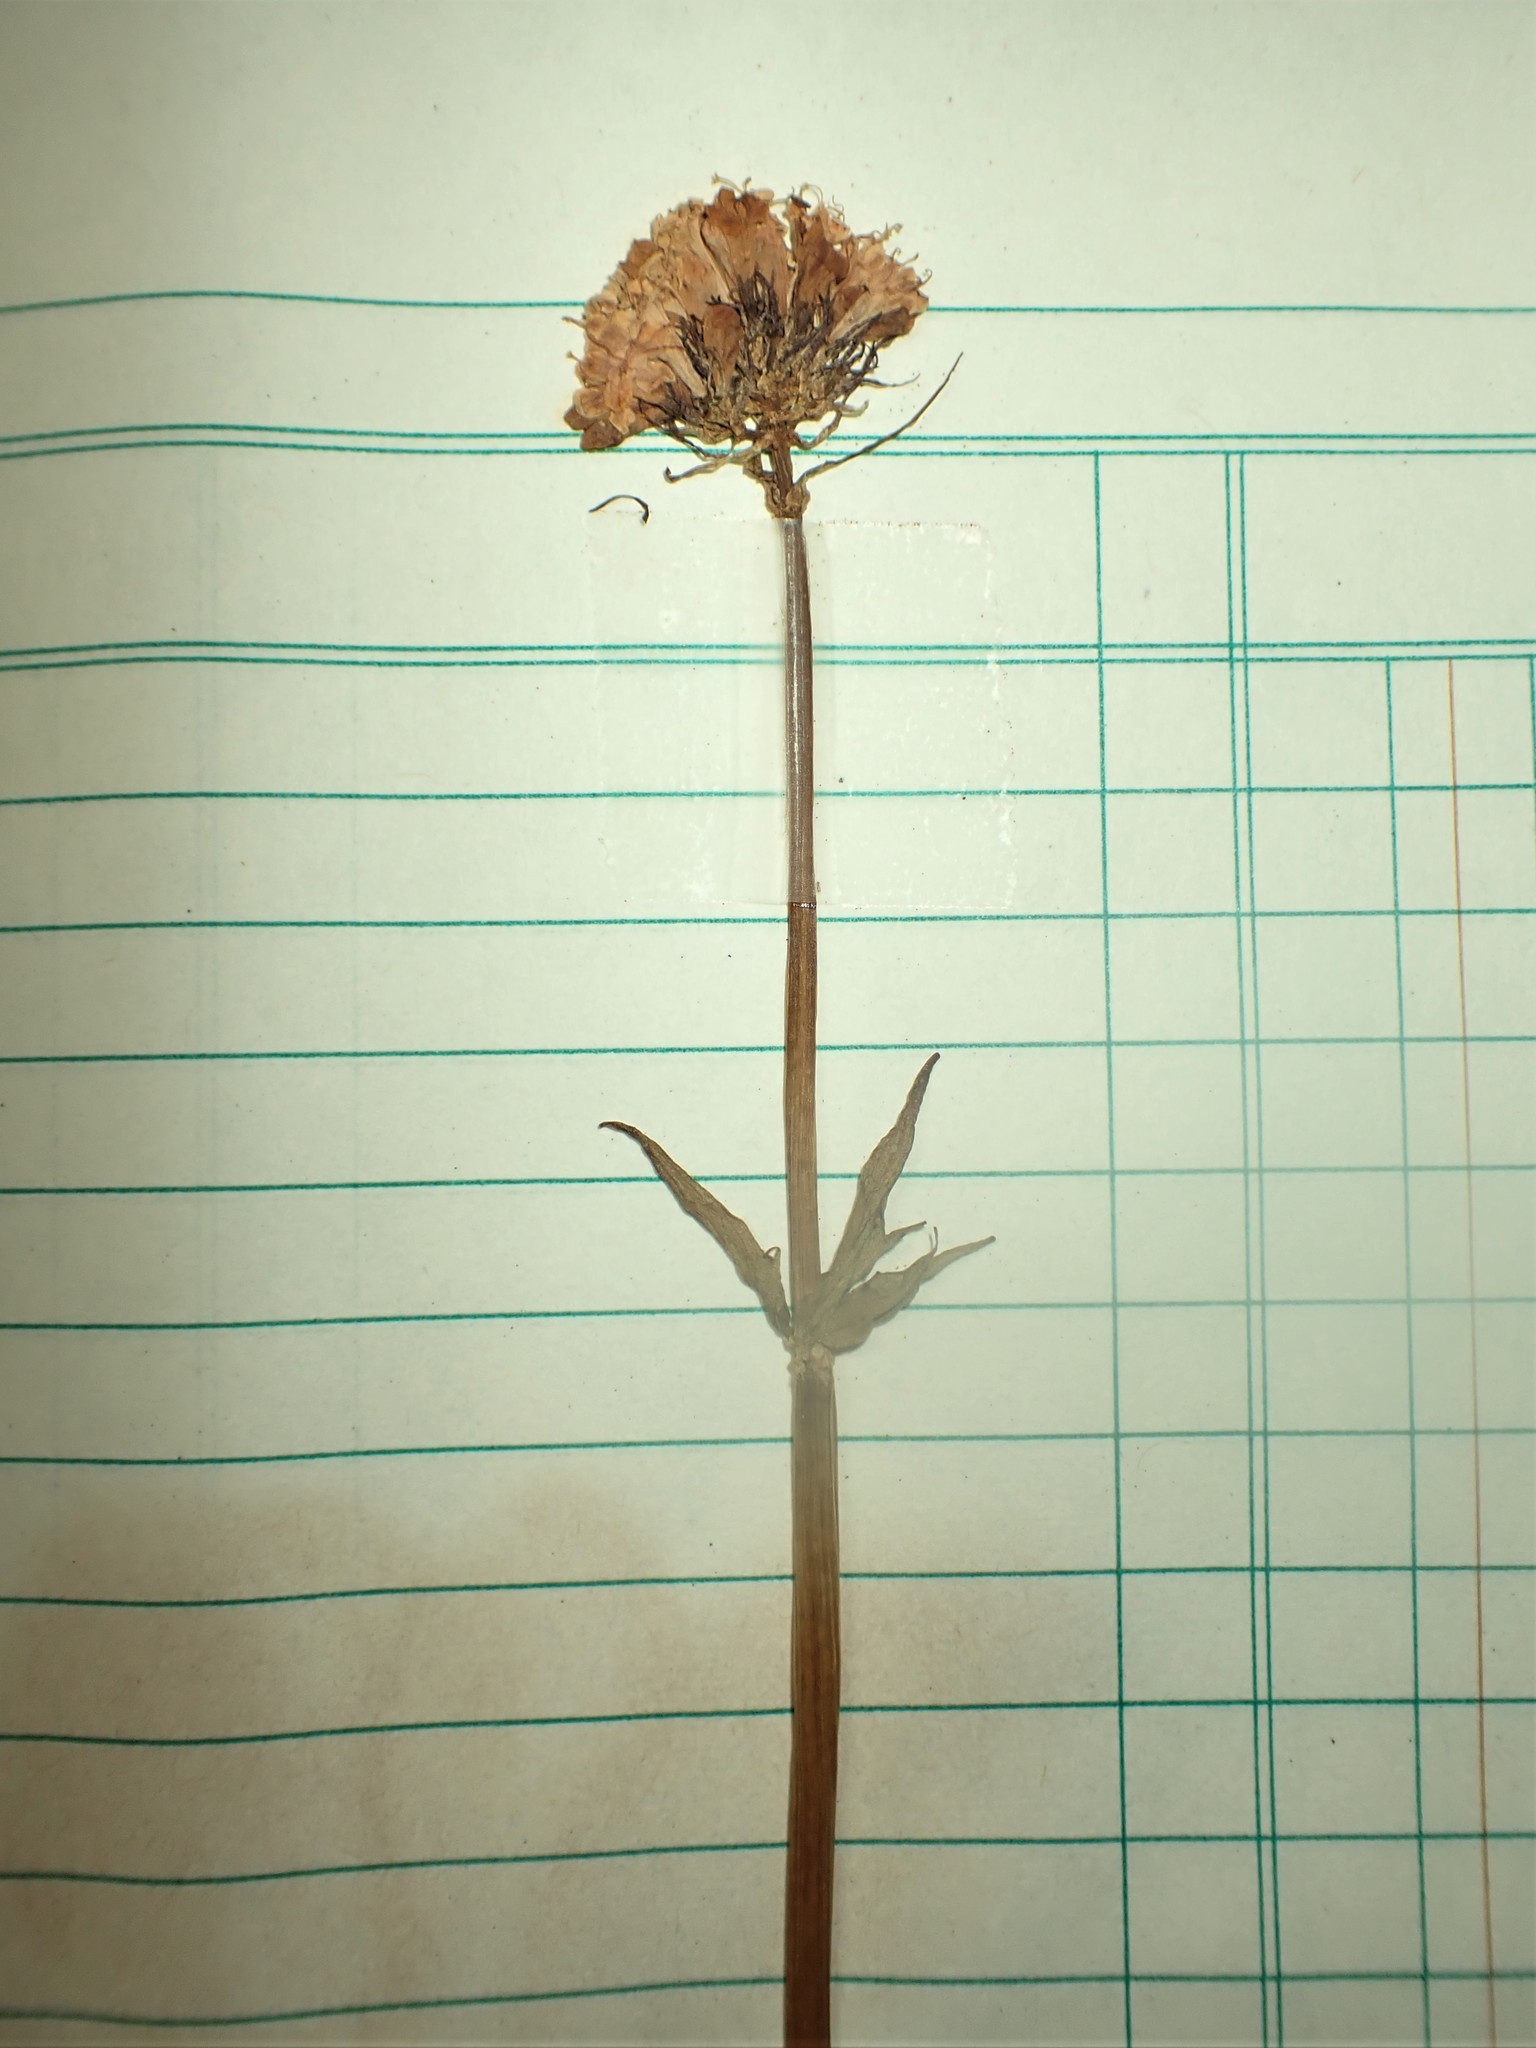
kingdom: Plantae
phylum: Tracheophyta
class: Magnoliopsida
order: Dipsacales
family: Caprifoliaceae
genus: Valeriana
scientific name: Valeriana capitata
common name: Capitate valerian
